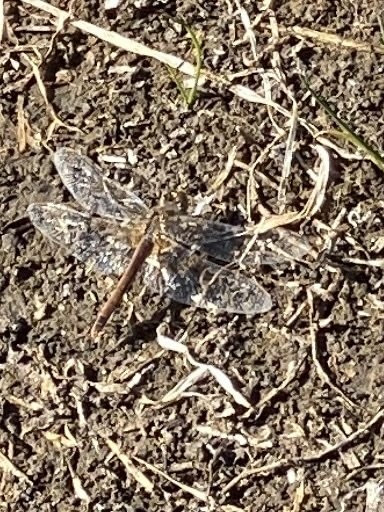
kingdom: Animalia
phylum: Arthropoda
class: Insecta
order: Odonata
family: Libellulidae
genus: Sympetrum
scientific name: Sympetrum fonscolombii
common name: Red-veined darter
